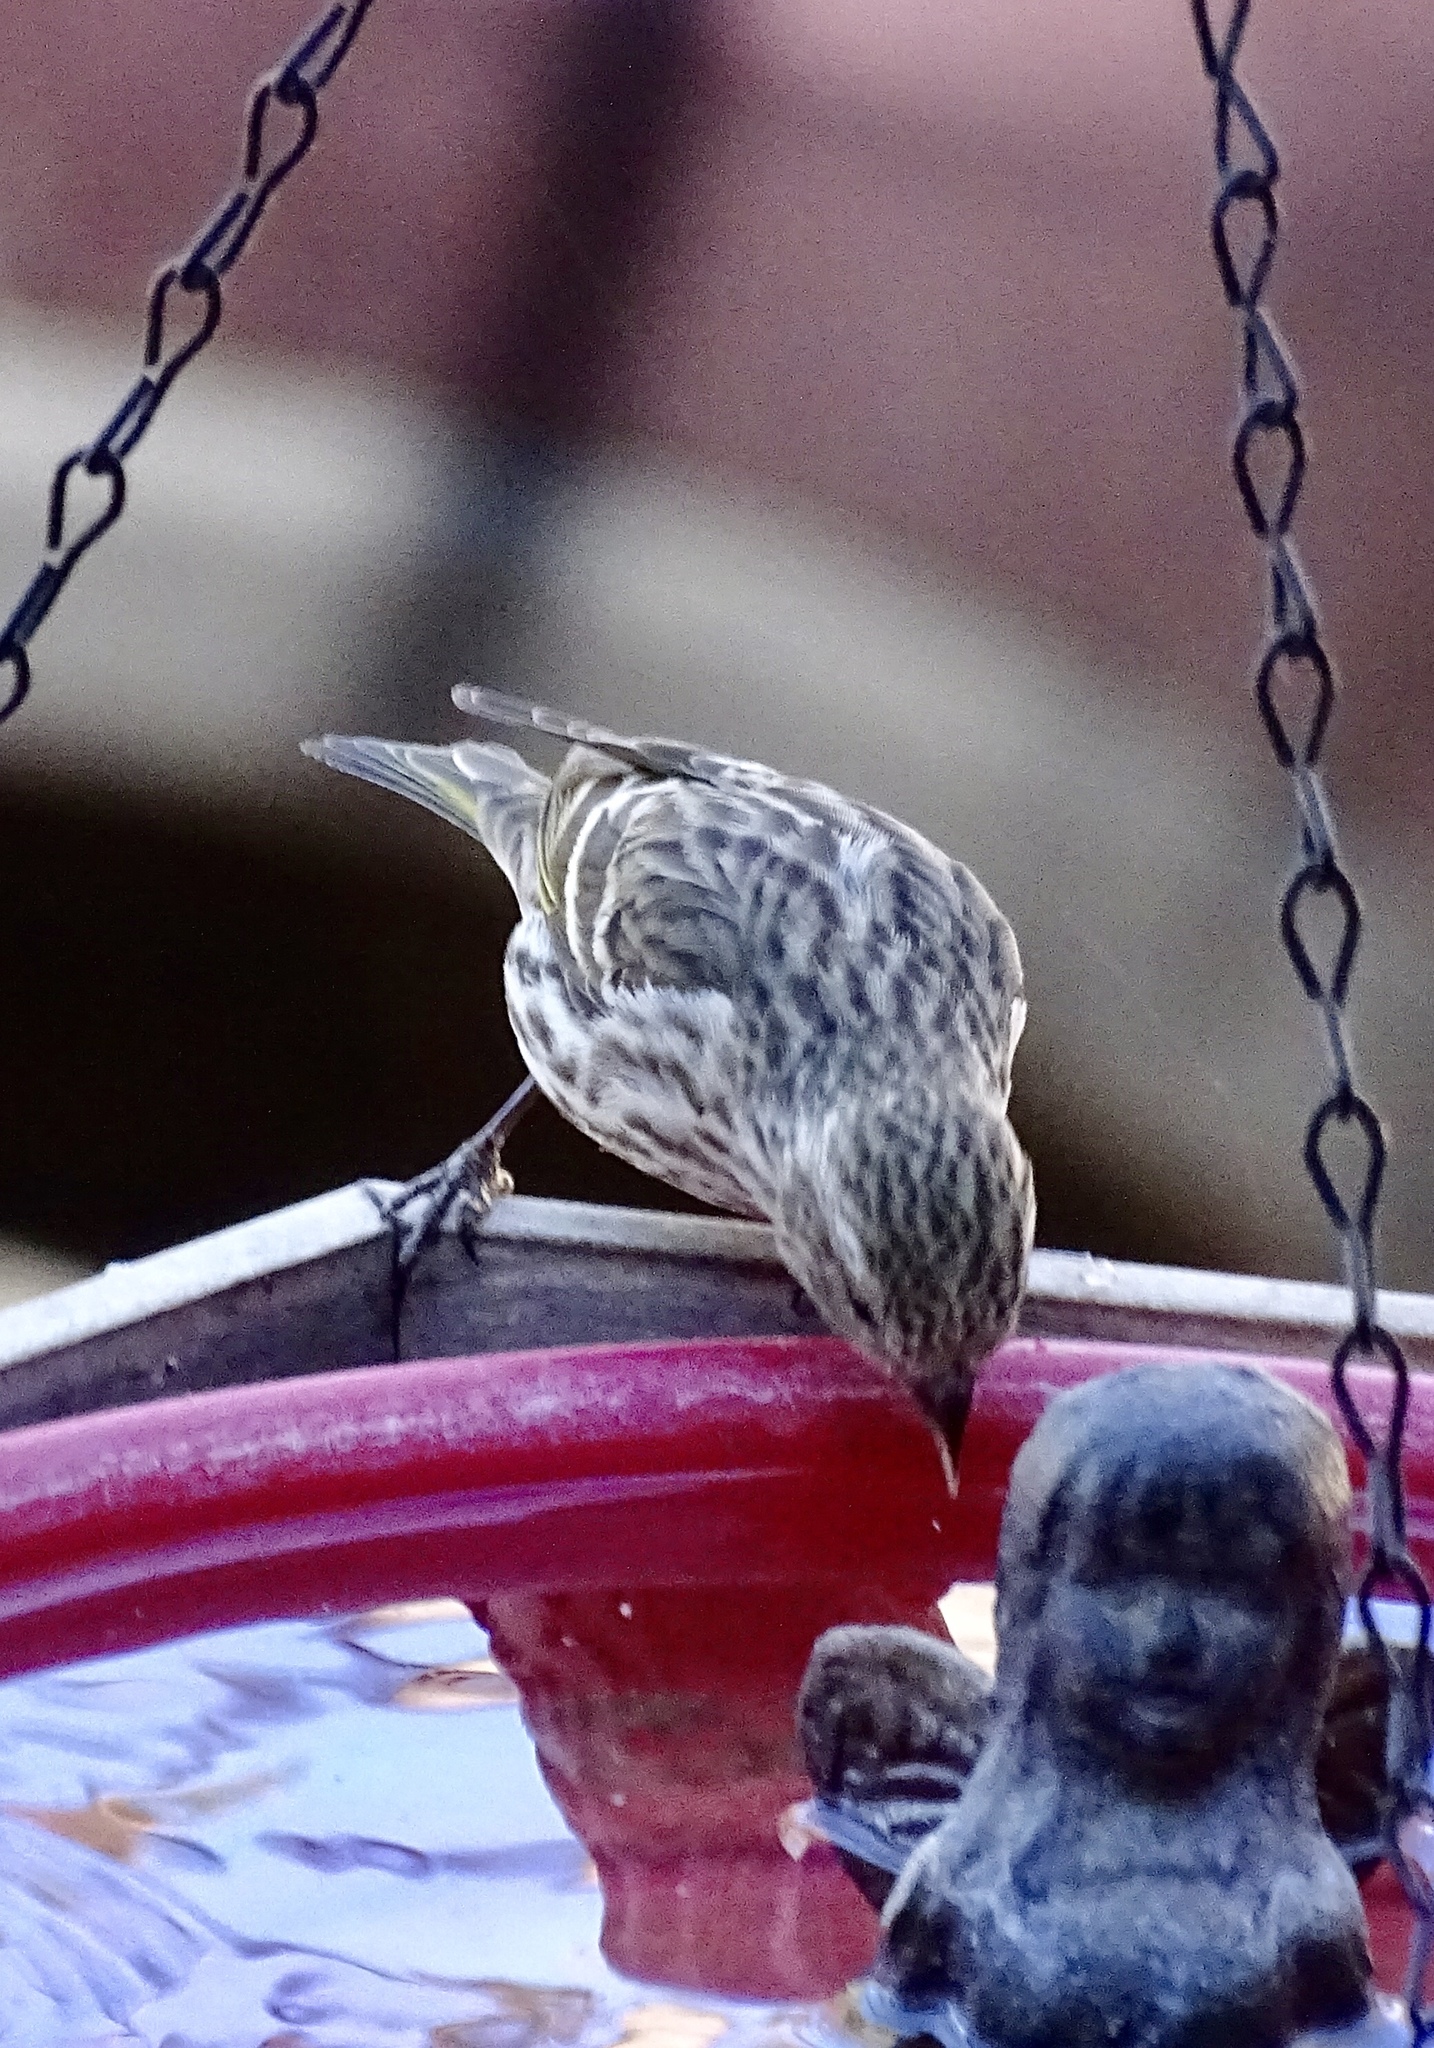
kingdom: Animalia
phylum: Chordata
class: Aves
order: Passeriformes
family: Fringillidae
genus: Spinus
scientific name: Spinus pinus
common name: Pine siskin
